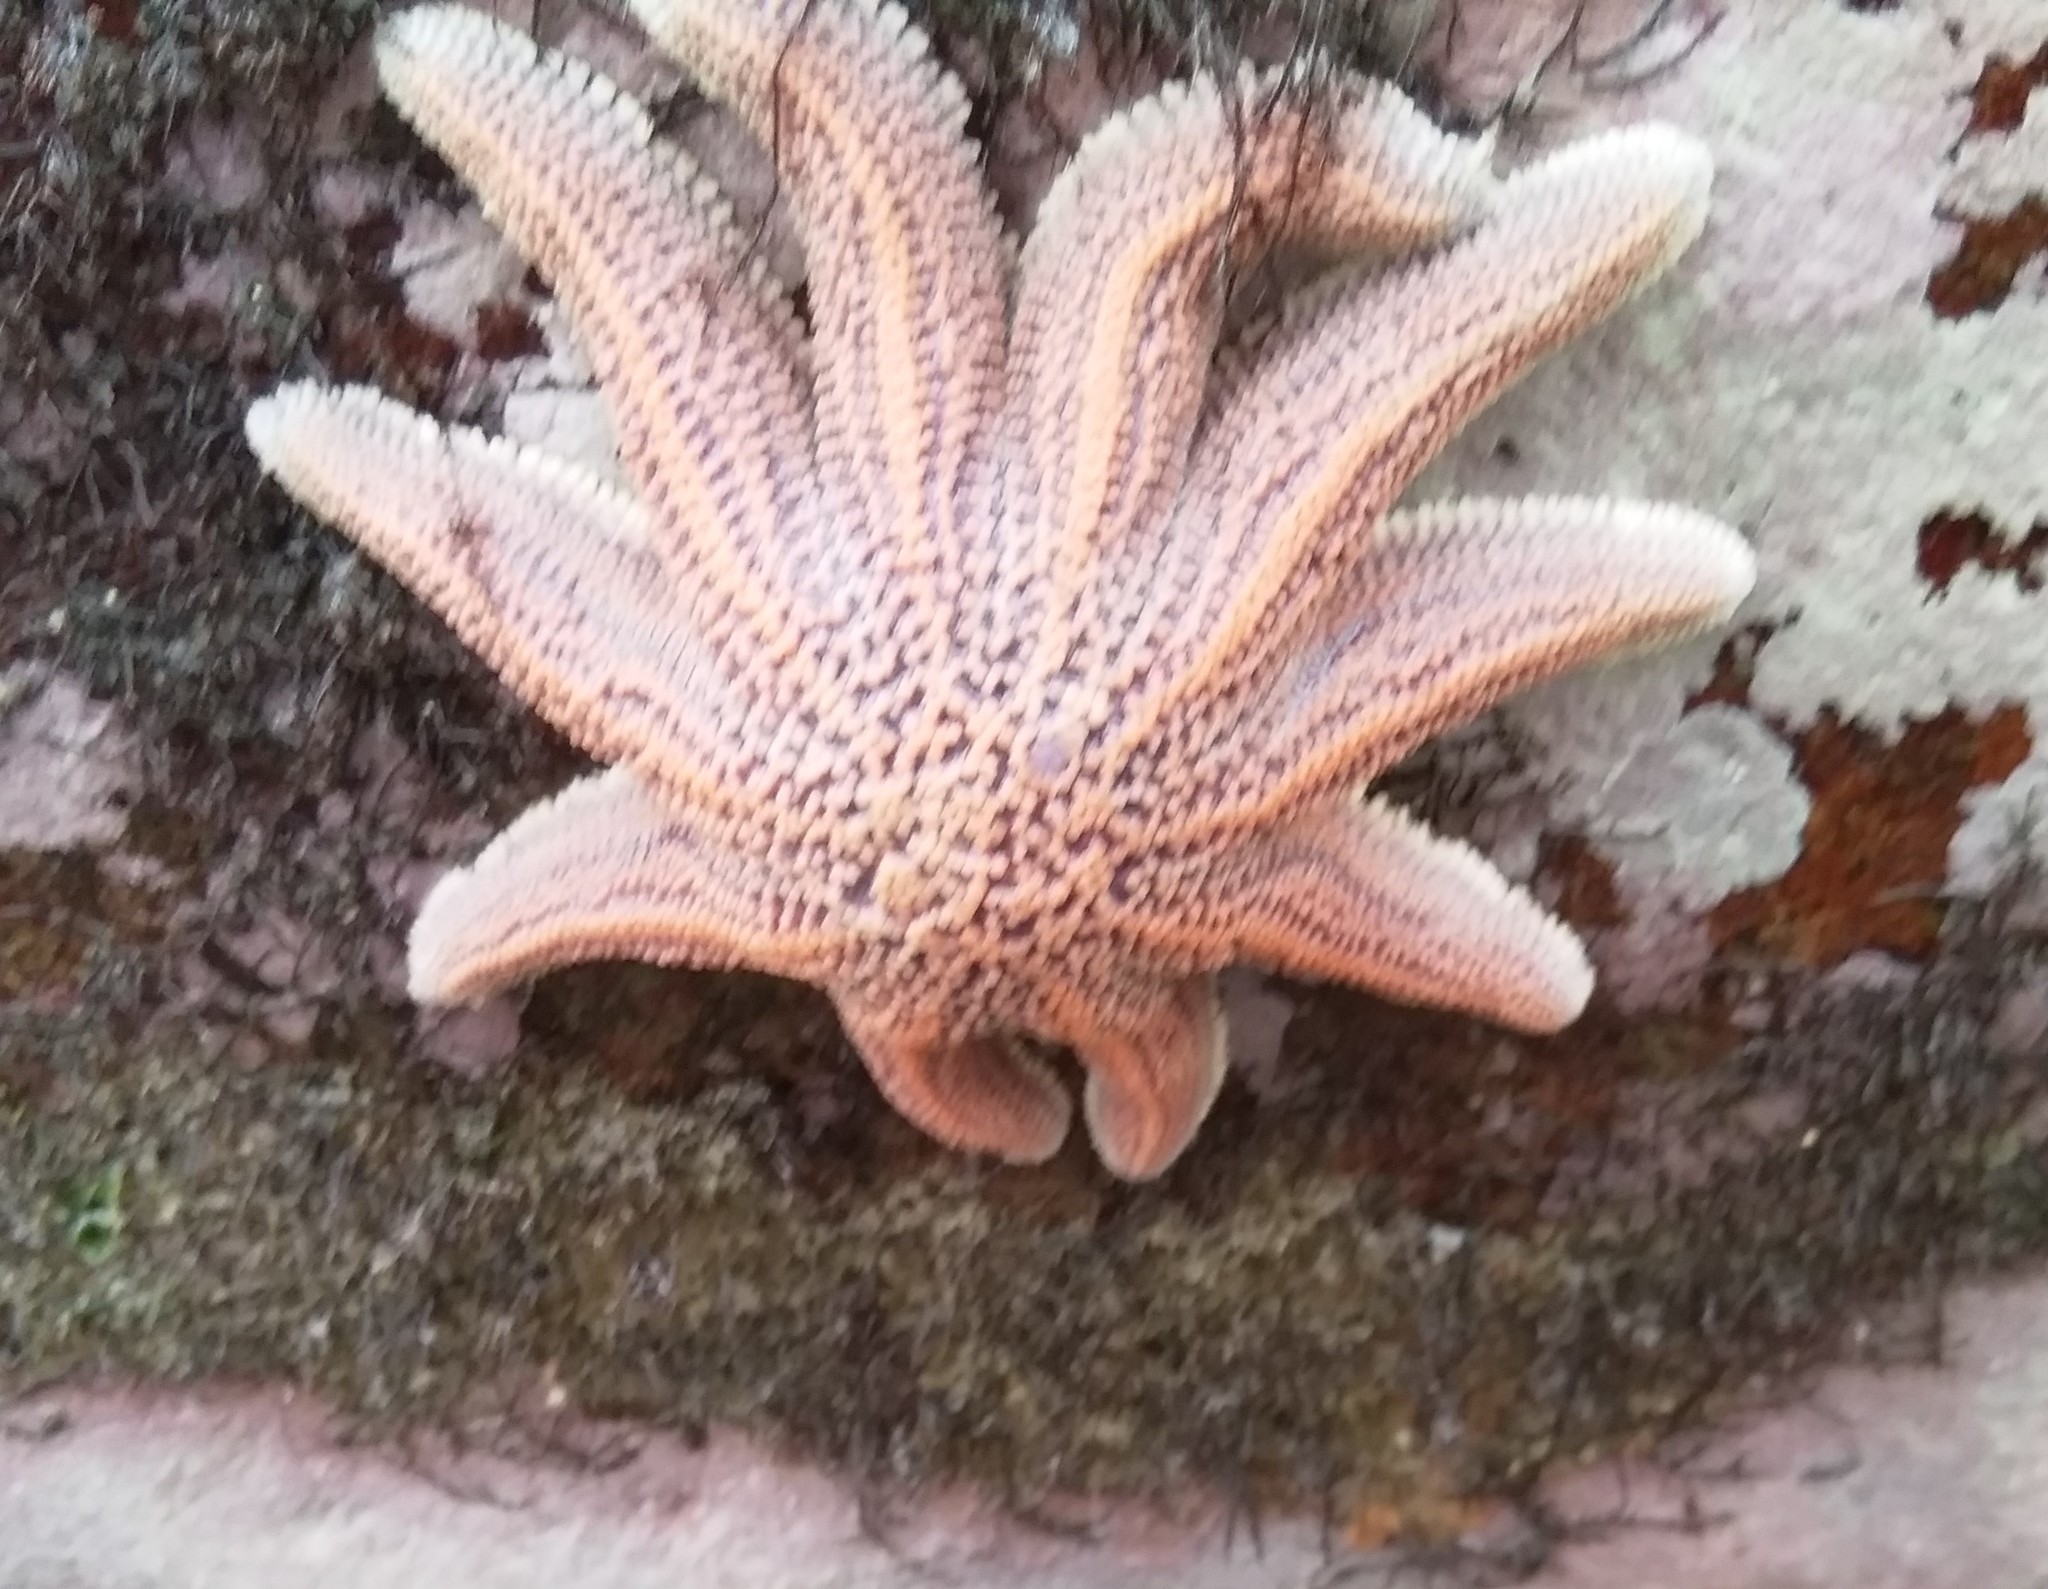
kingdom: Animalia
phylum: Echinodermata
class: Asteroidea
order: Forcipulatida
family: Stichasteridae
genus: Stichaster
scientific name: Stichaster australis
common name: Reef starfish
